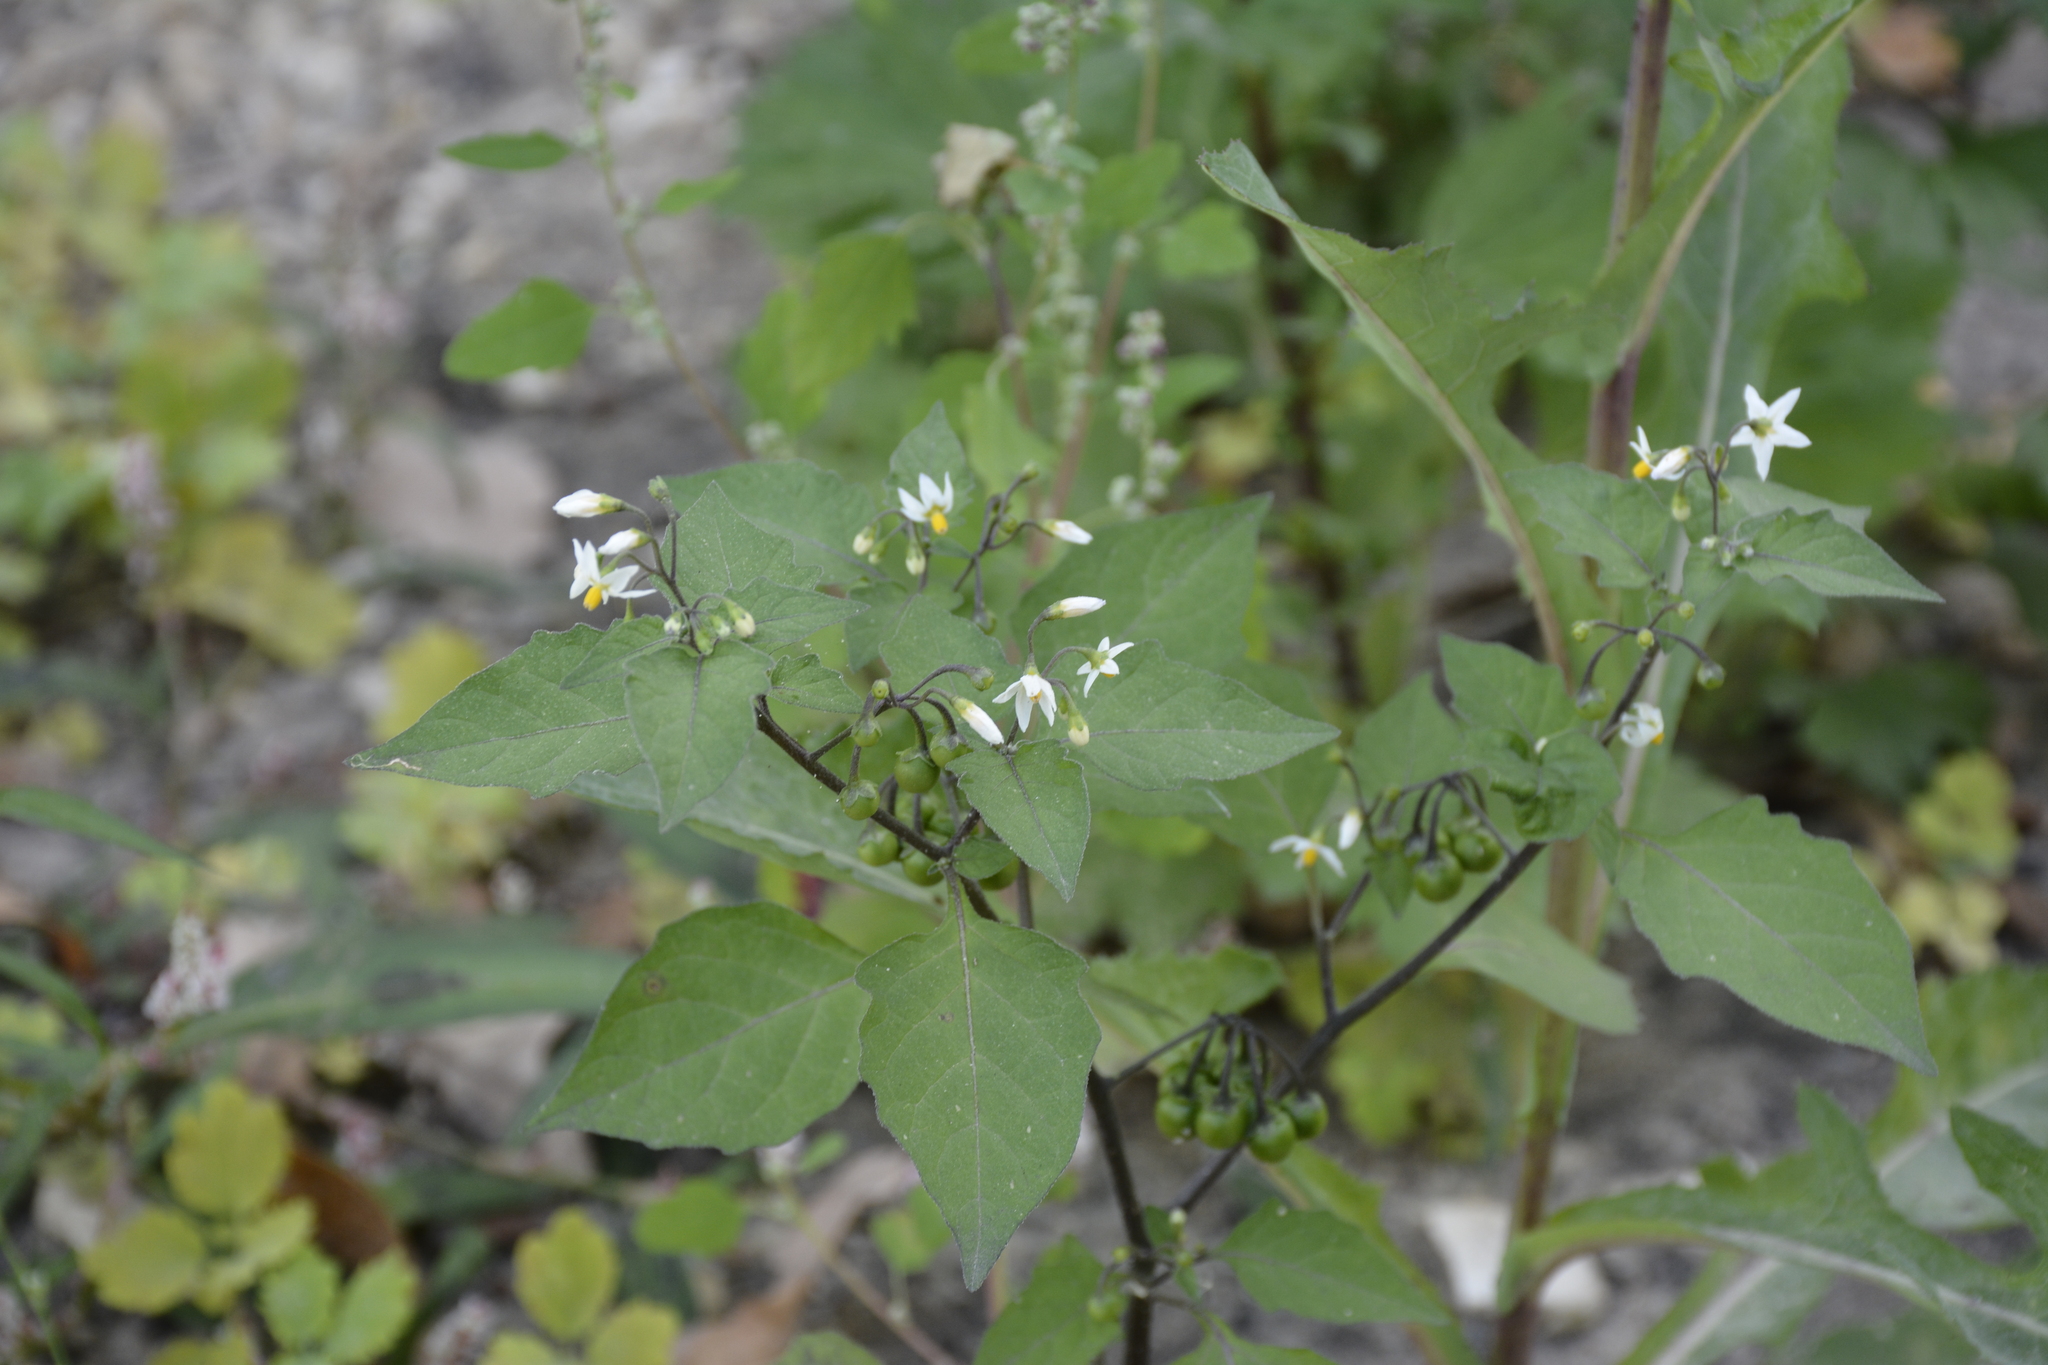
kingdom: Plantae
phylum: Tracheophyta
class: Magnoliopsida
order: Solanales
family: Solanaceae
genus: Solanum
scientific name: Solanum nigrum
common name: Black nightshade
